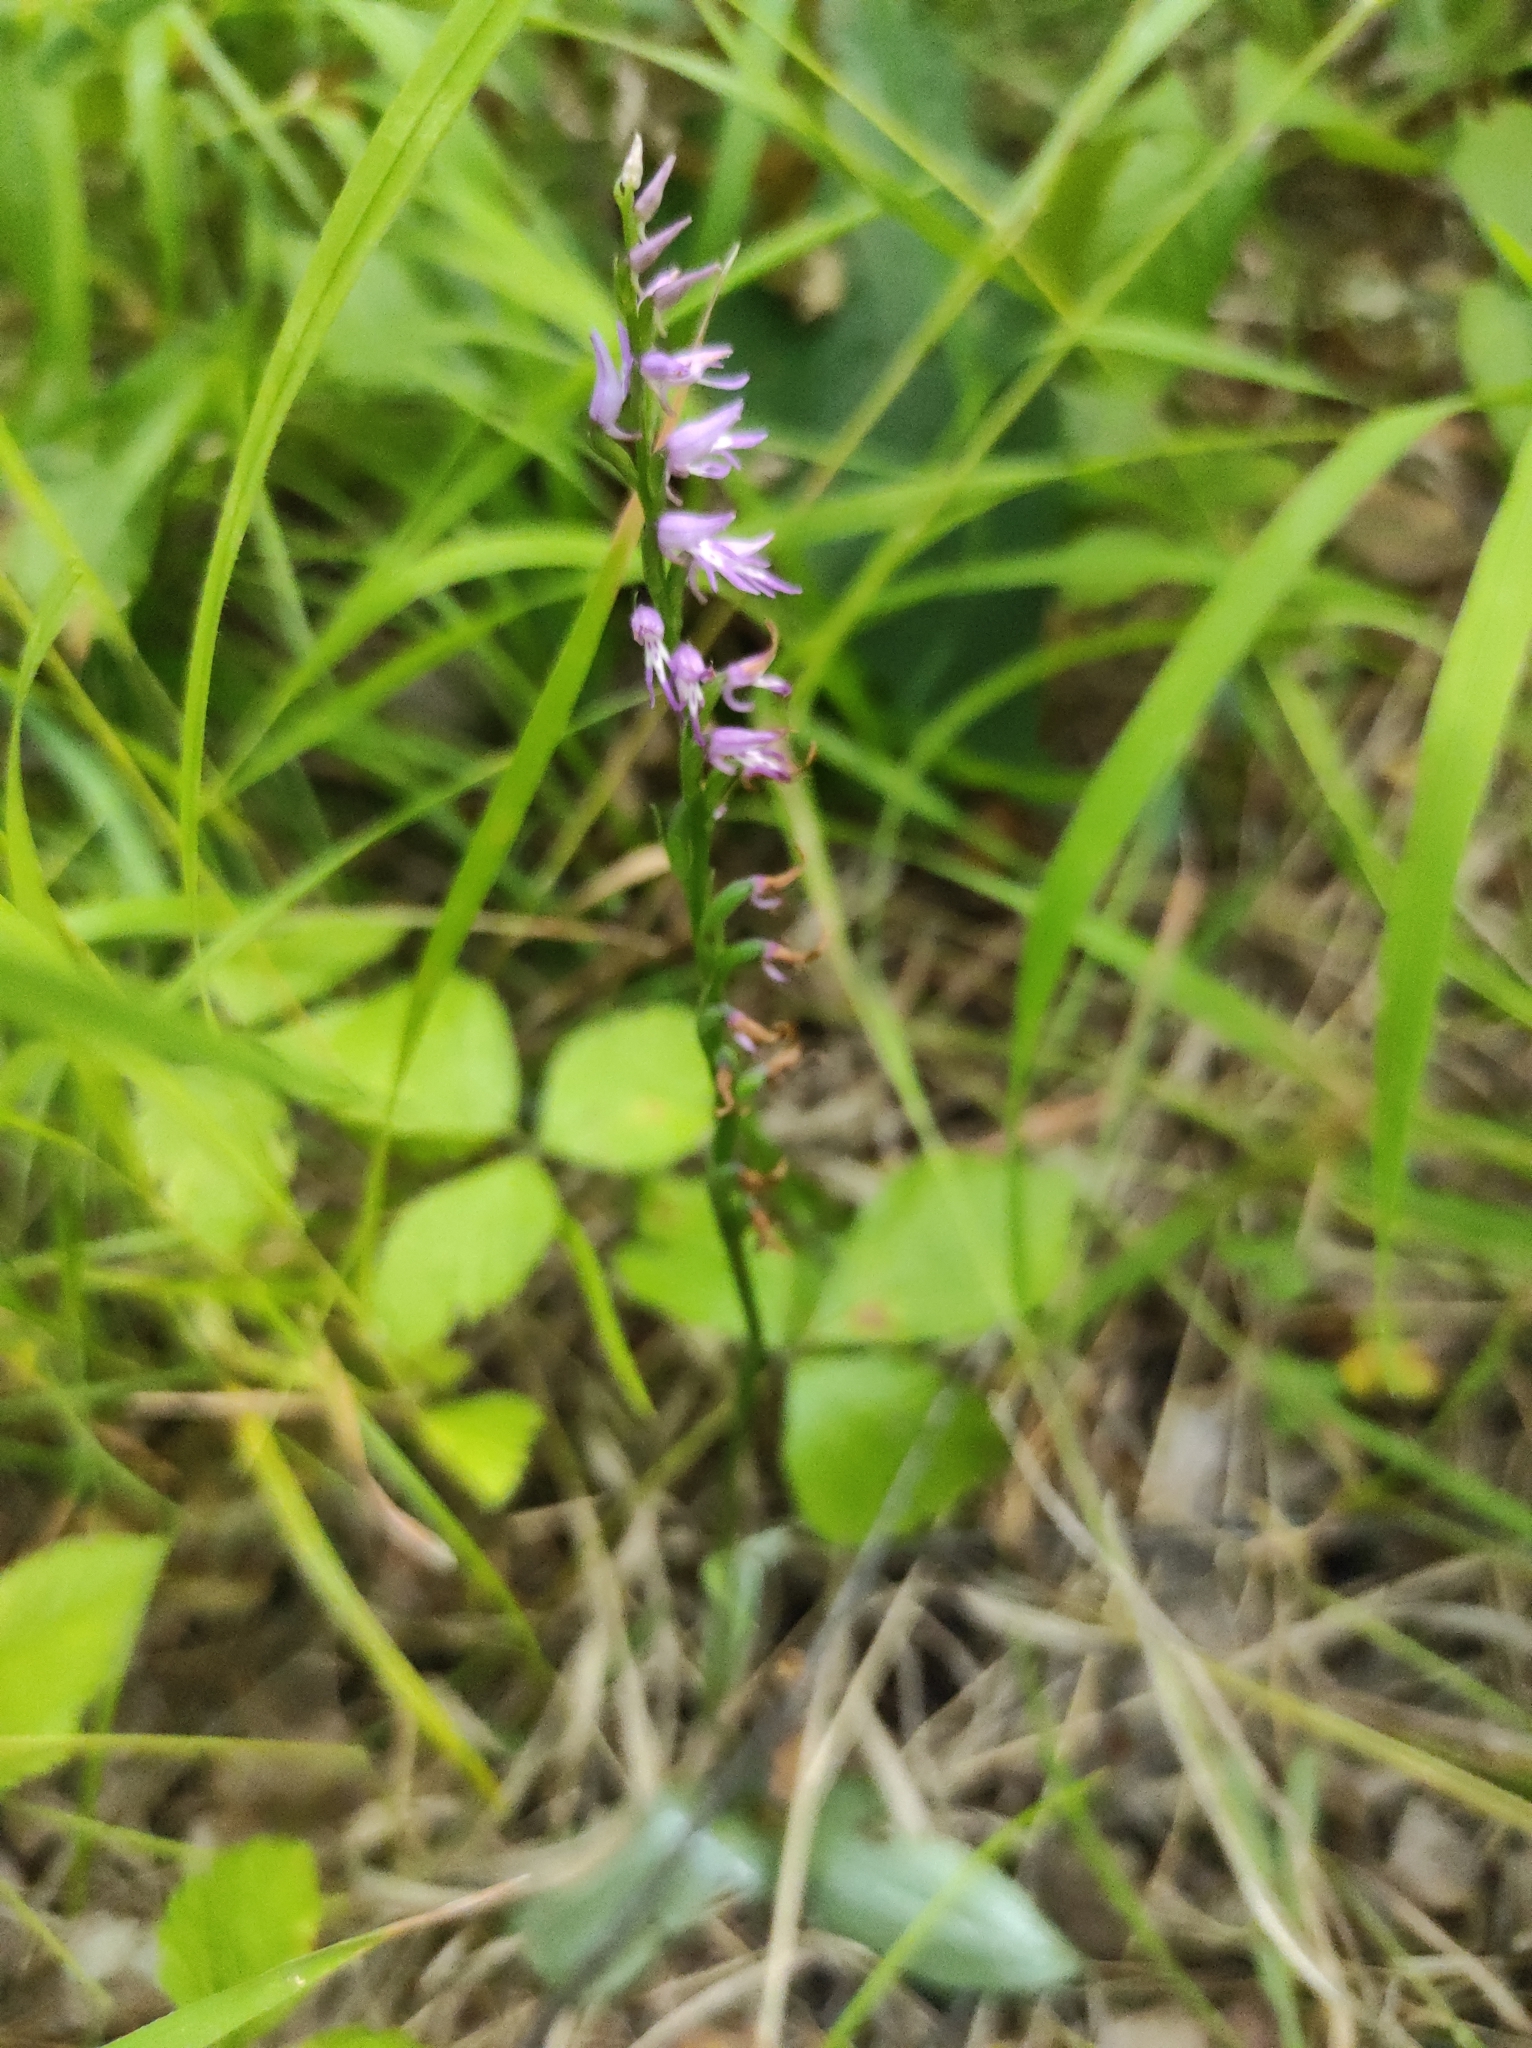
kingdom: Plantae
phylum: Tracheophyta
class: Liliopsida
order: Asparagales
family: Orchidaceae
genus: Hemipilia
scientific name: Hemipilia cucullata
